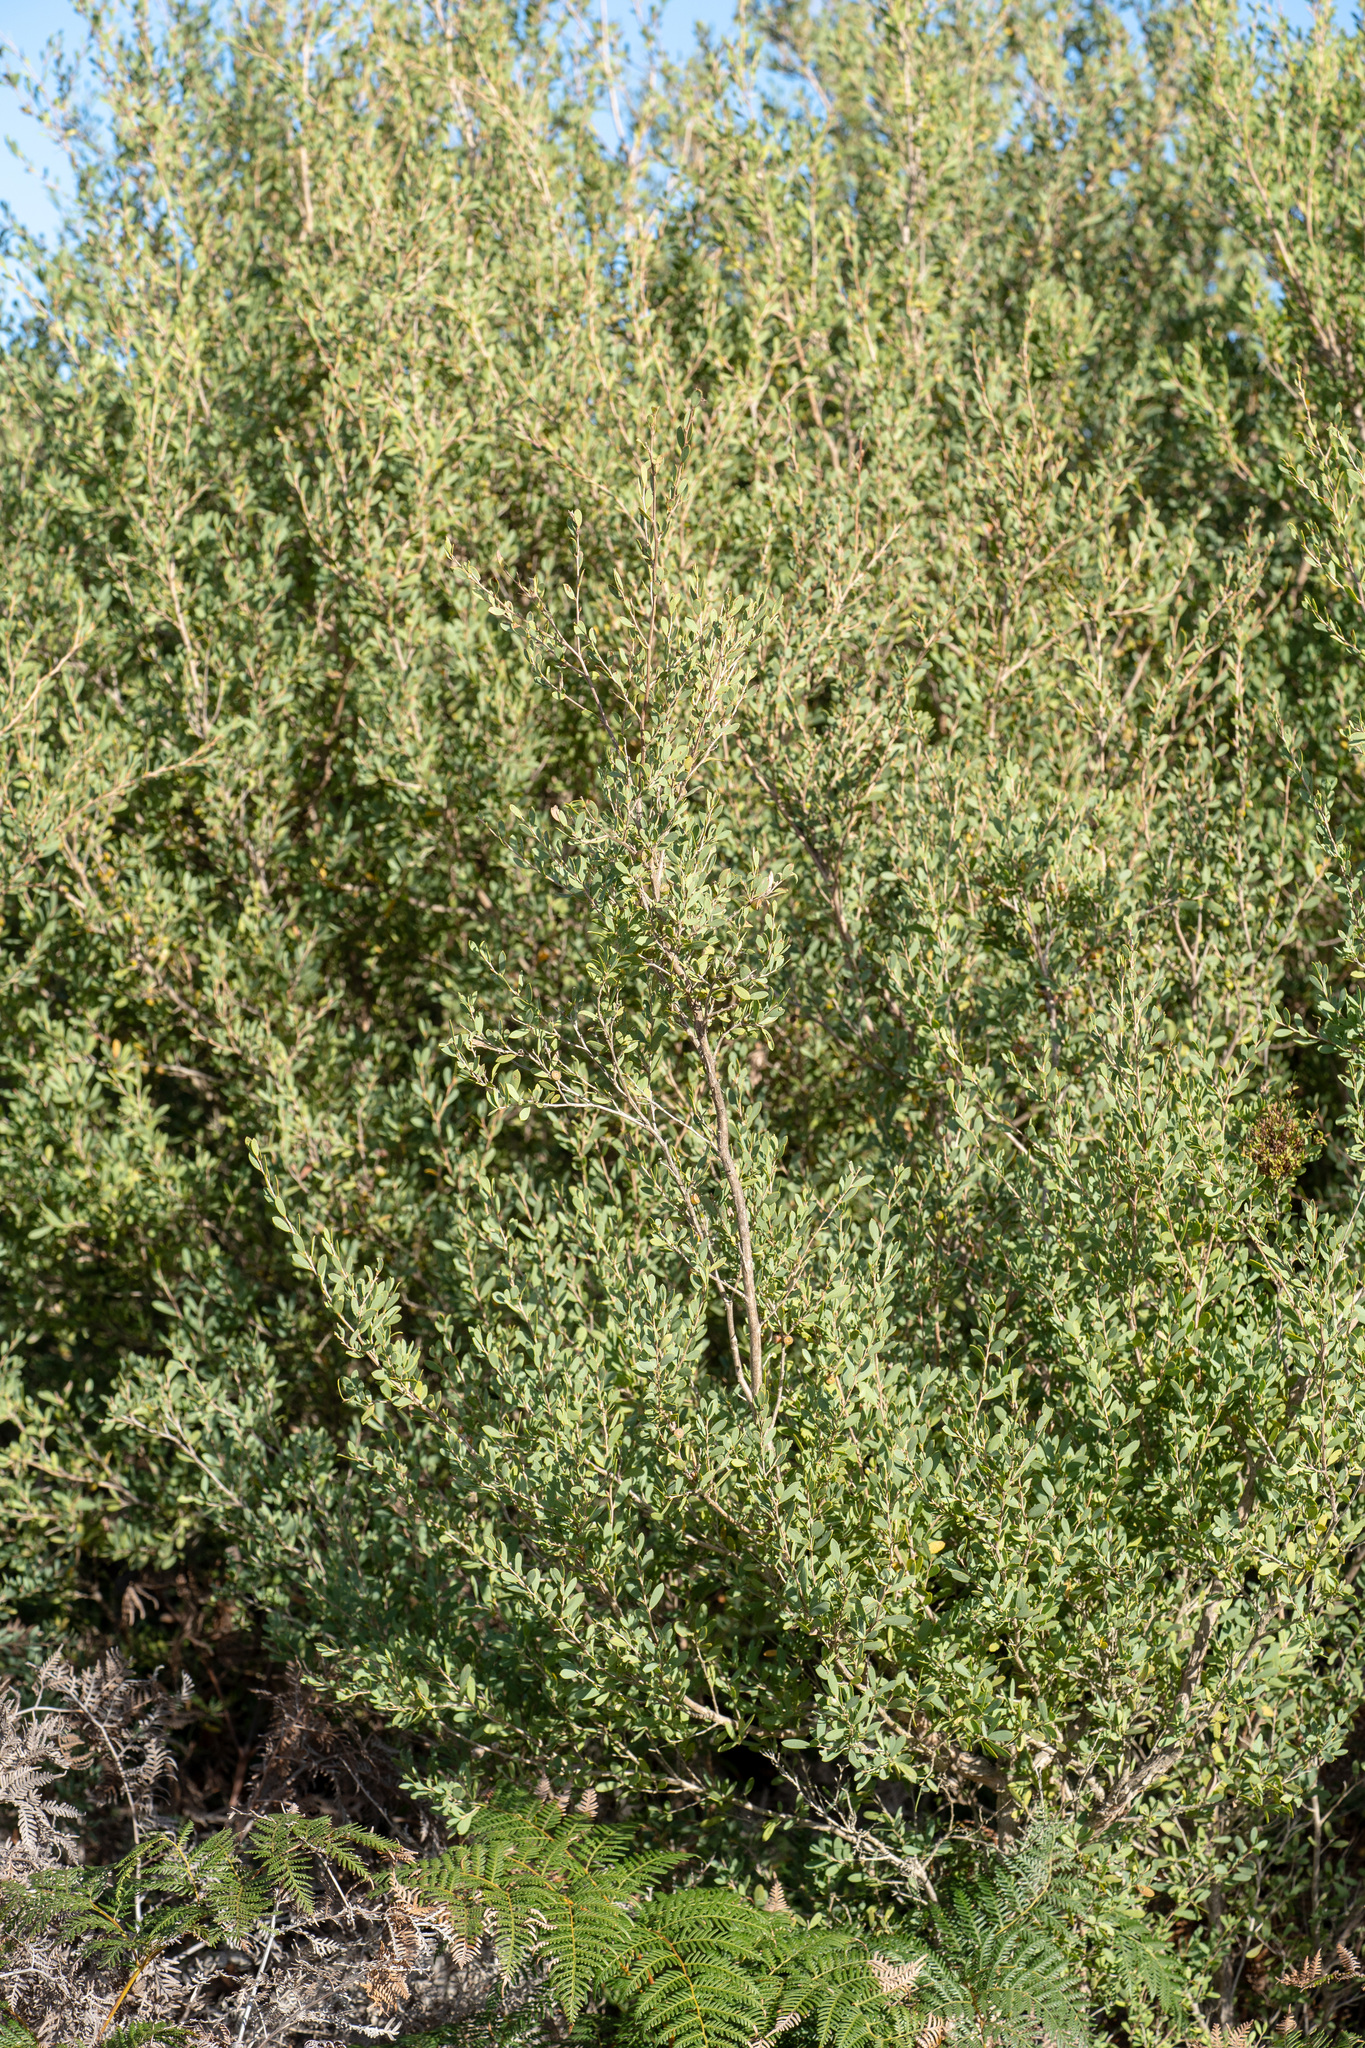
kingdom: Plantae
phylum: Tracheophyta
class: Magnoliopsida
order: Myrtales
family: Myrtaceae
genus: Leptospermum
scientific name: Leptospermum laevigatum
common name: Australian teatree
